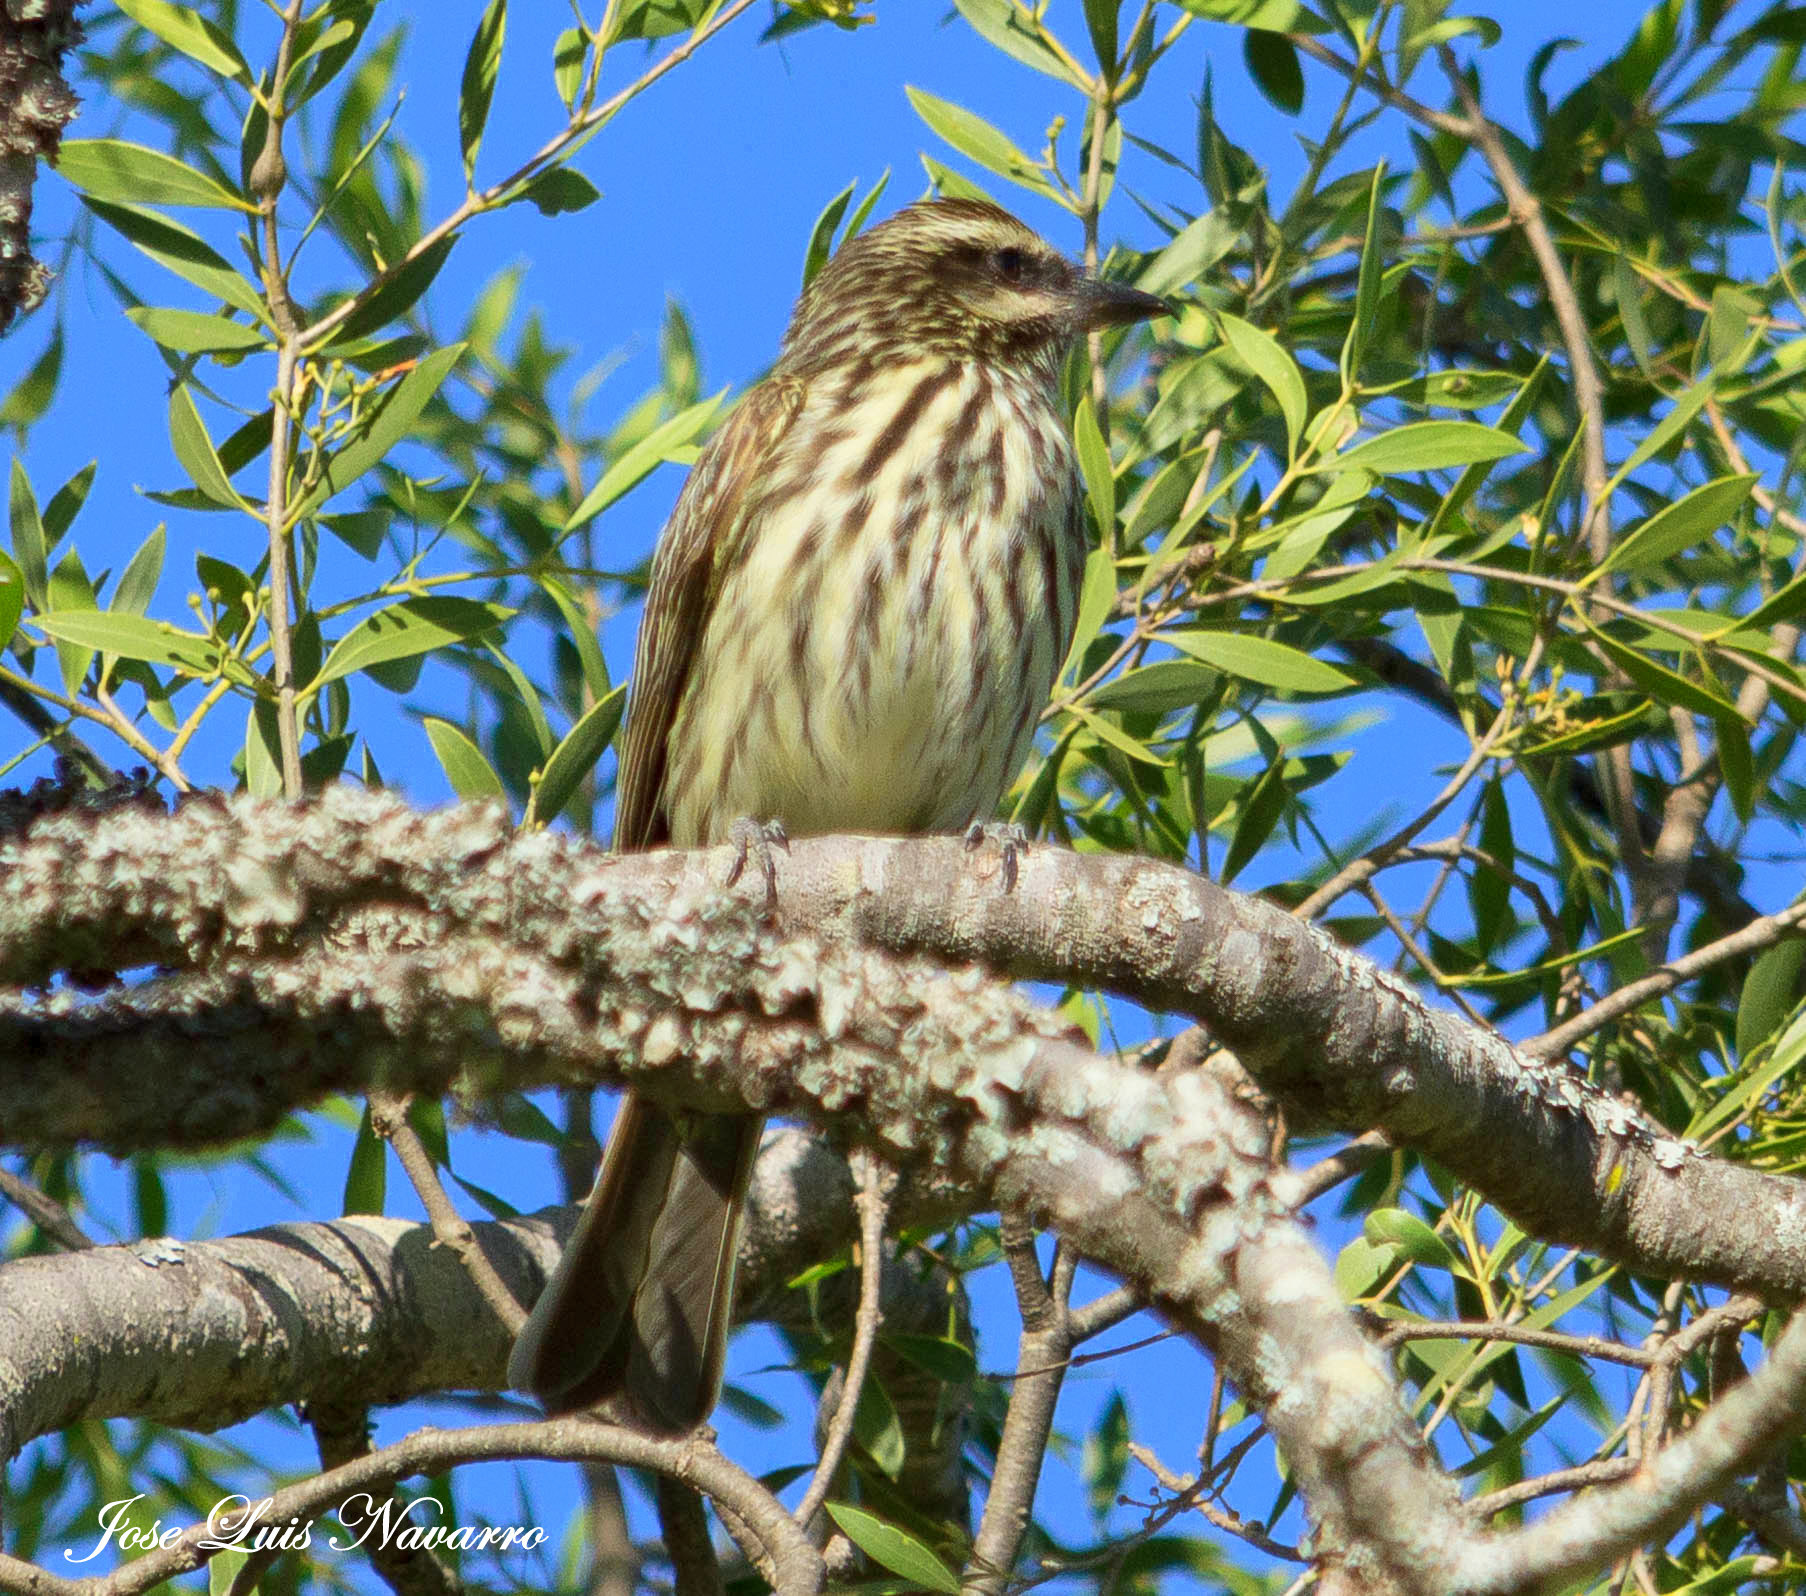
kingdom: Animalia
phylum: Chordata
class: Aves
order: Passeriformes
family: Tyrannidae
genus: Myiodynastes
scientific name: Myiodynastes maculatus
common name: Streaked flycatcher
